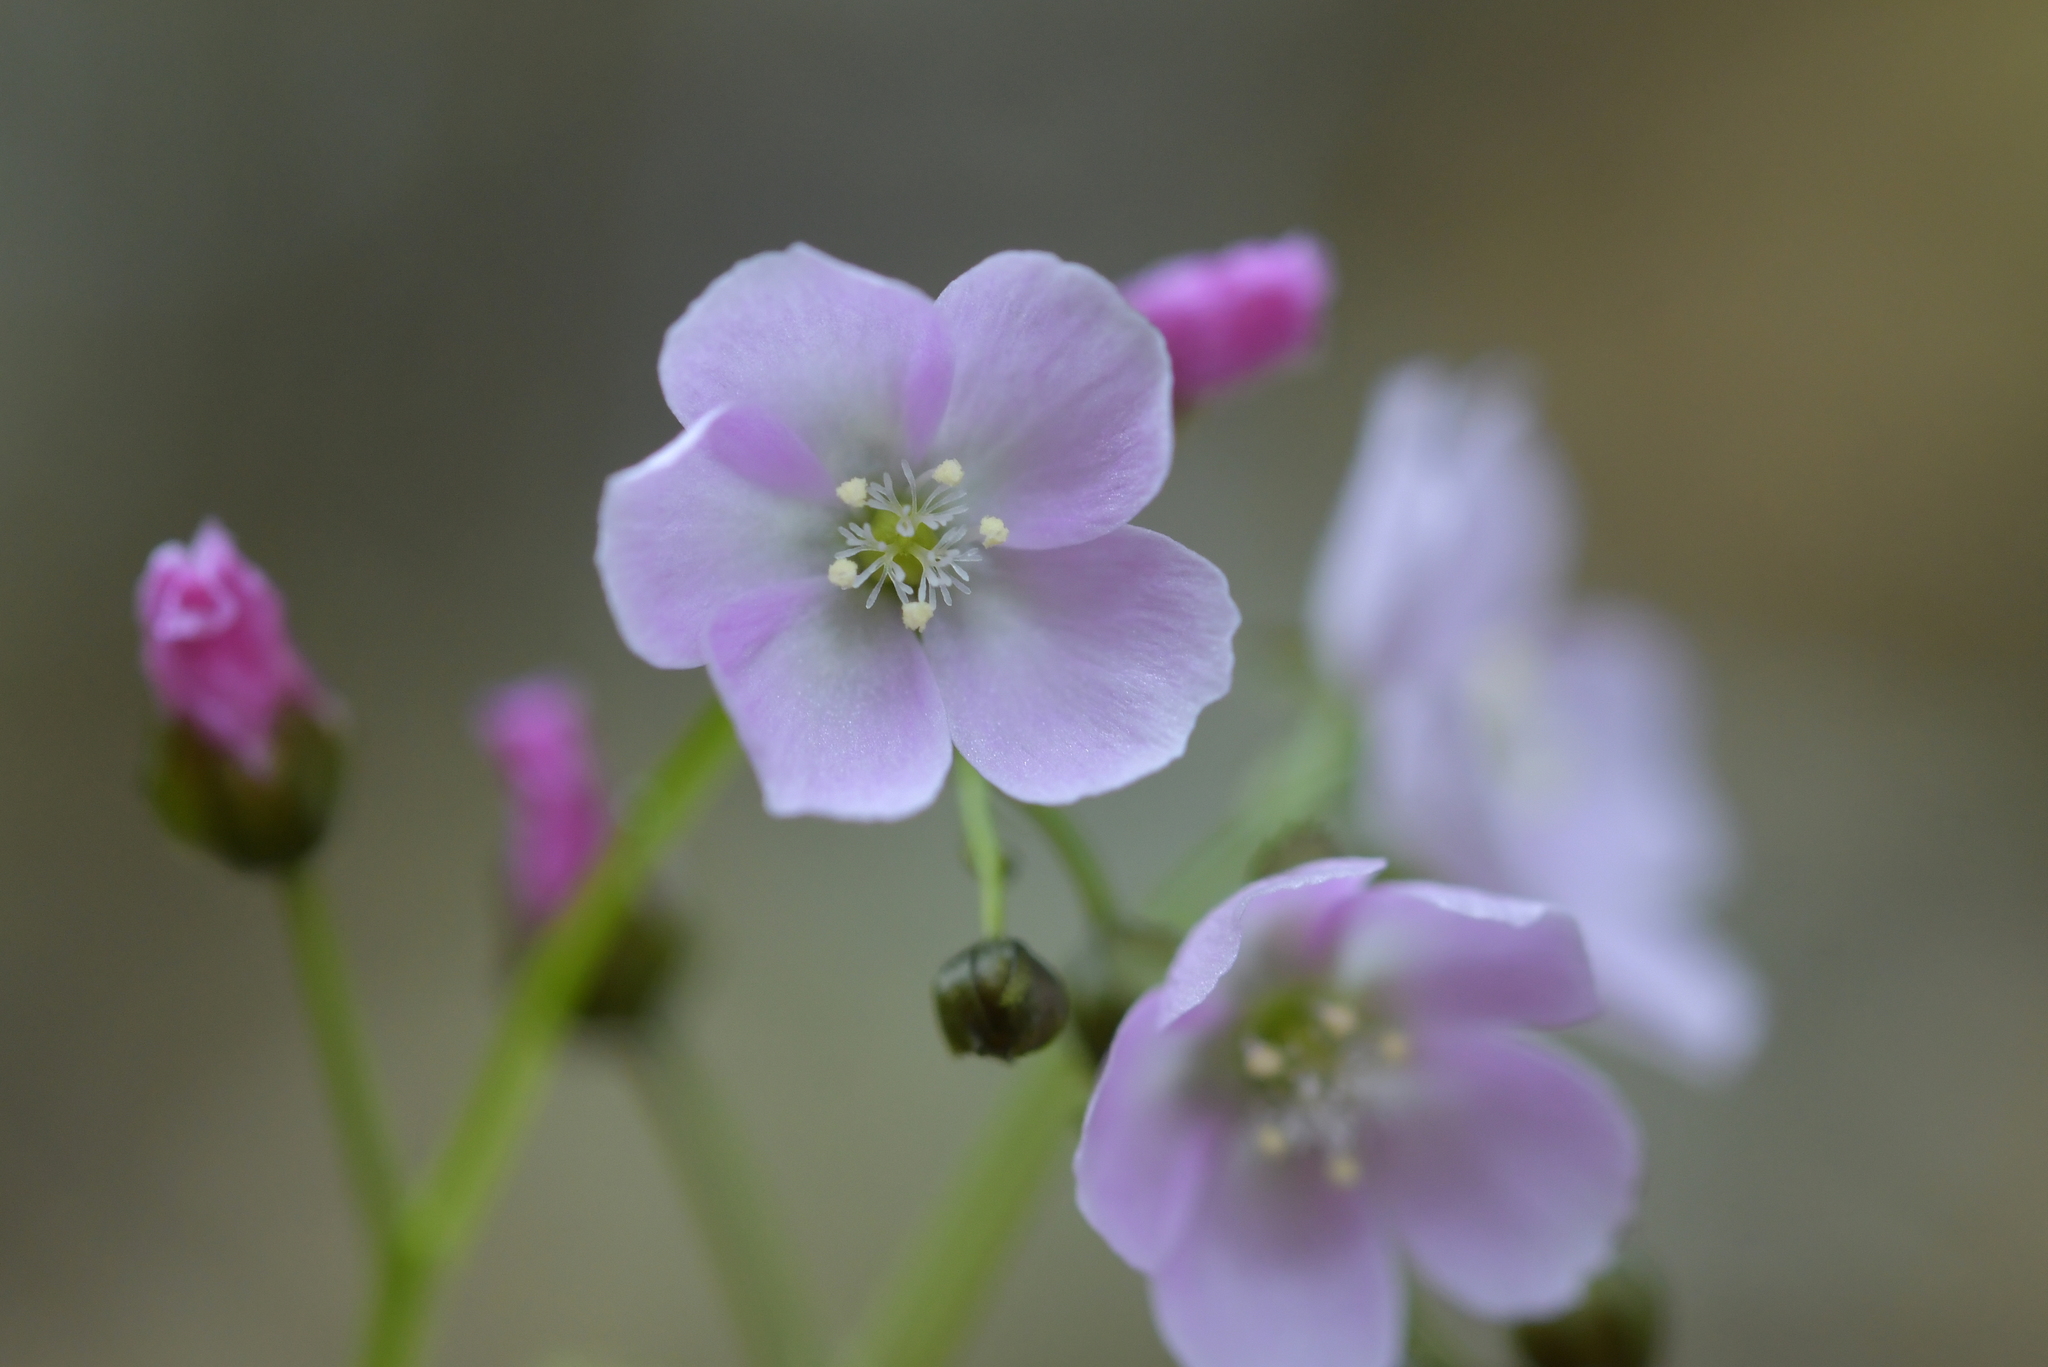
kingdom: Plantae
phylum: Tracheophyta
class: Magnoliopsida
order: Caryophyllales
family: Droseraceae
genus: Drosera
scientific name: Drosera peltata
